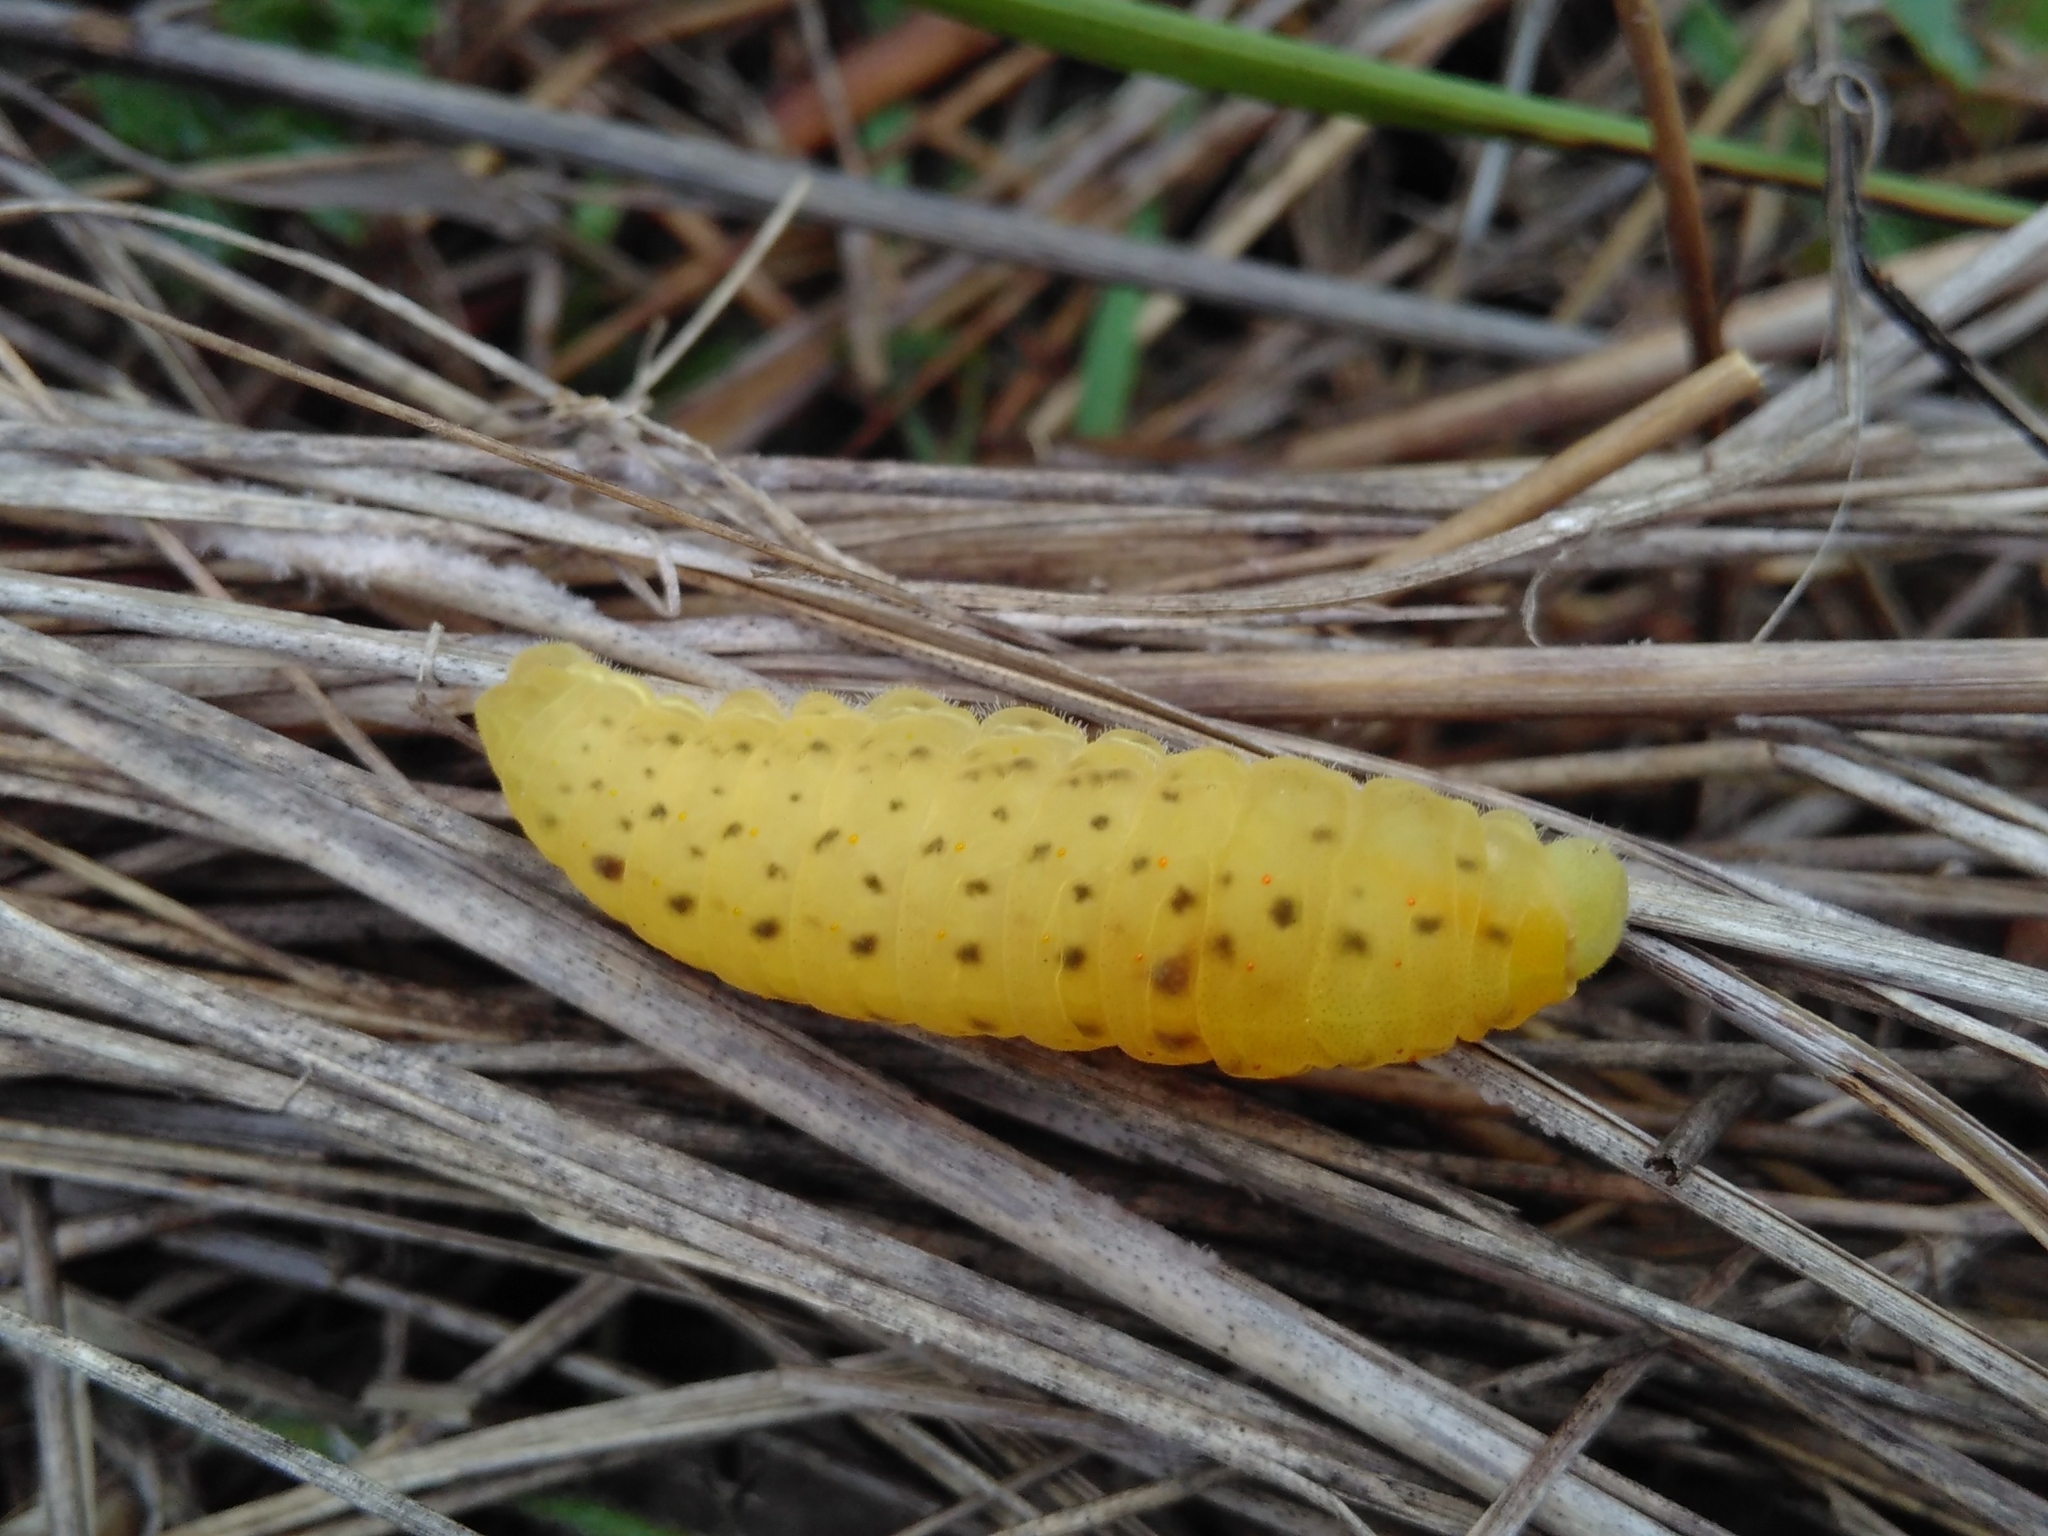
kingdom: Animalia
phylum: Arthropoda
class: Insecta
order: Lepidoptera
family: Papilionidae
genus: Iphiclides
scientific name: Iphiclides podalirius
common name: Scarce swallowtail
